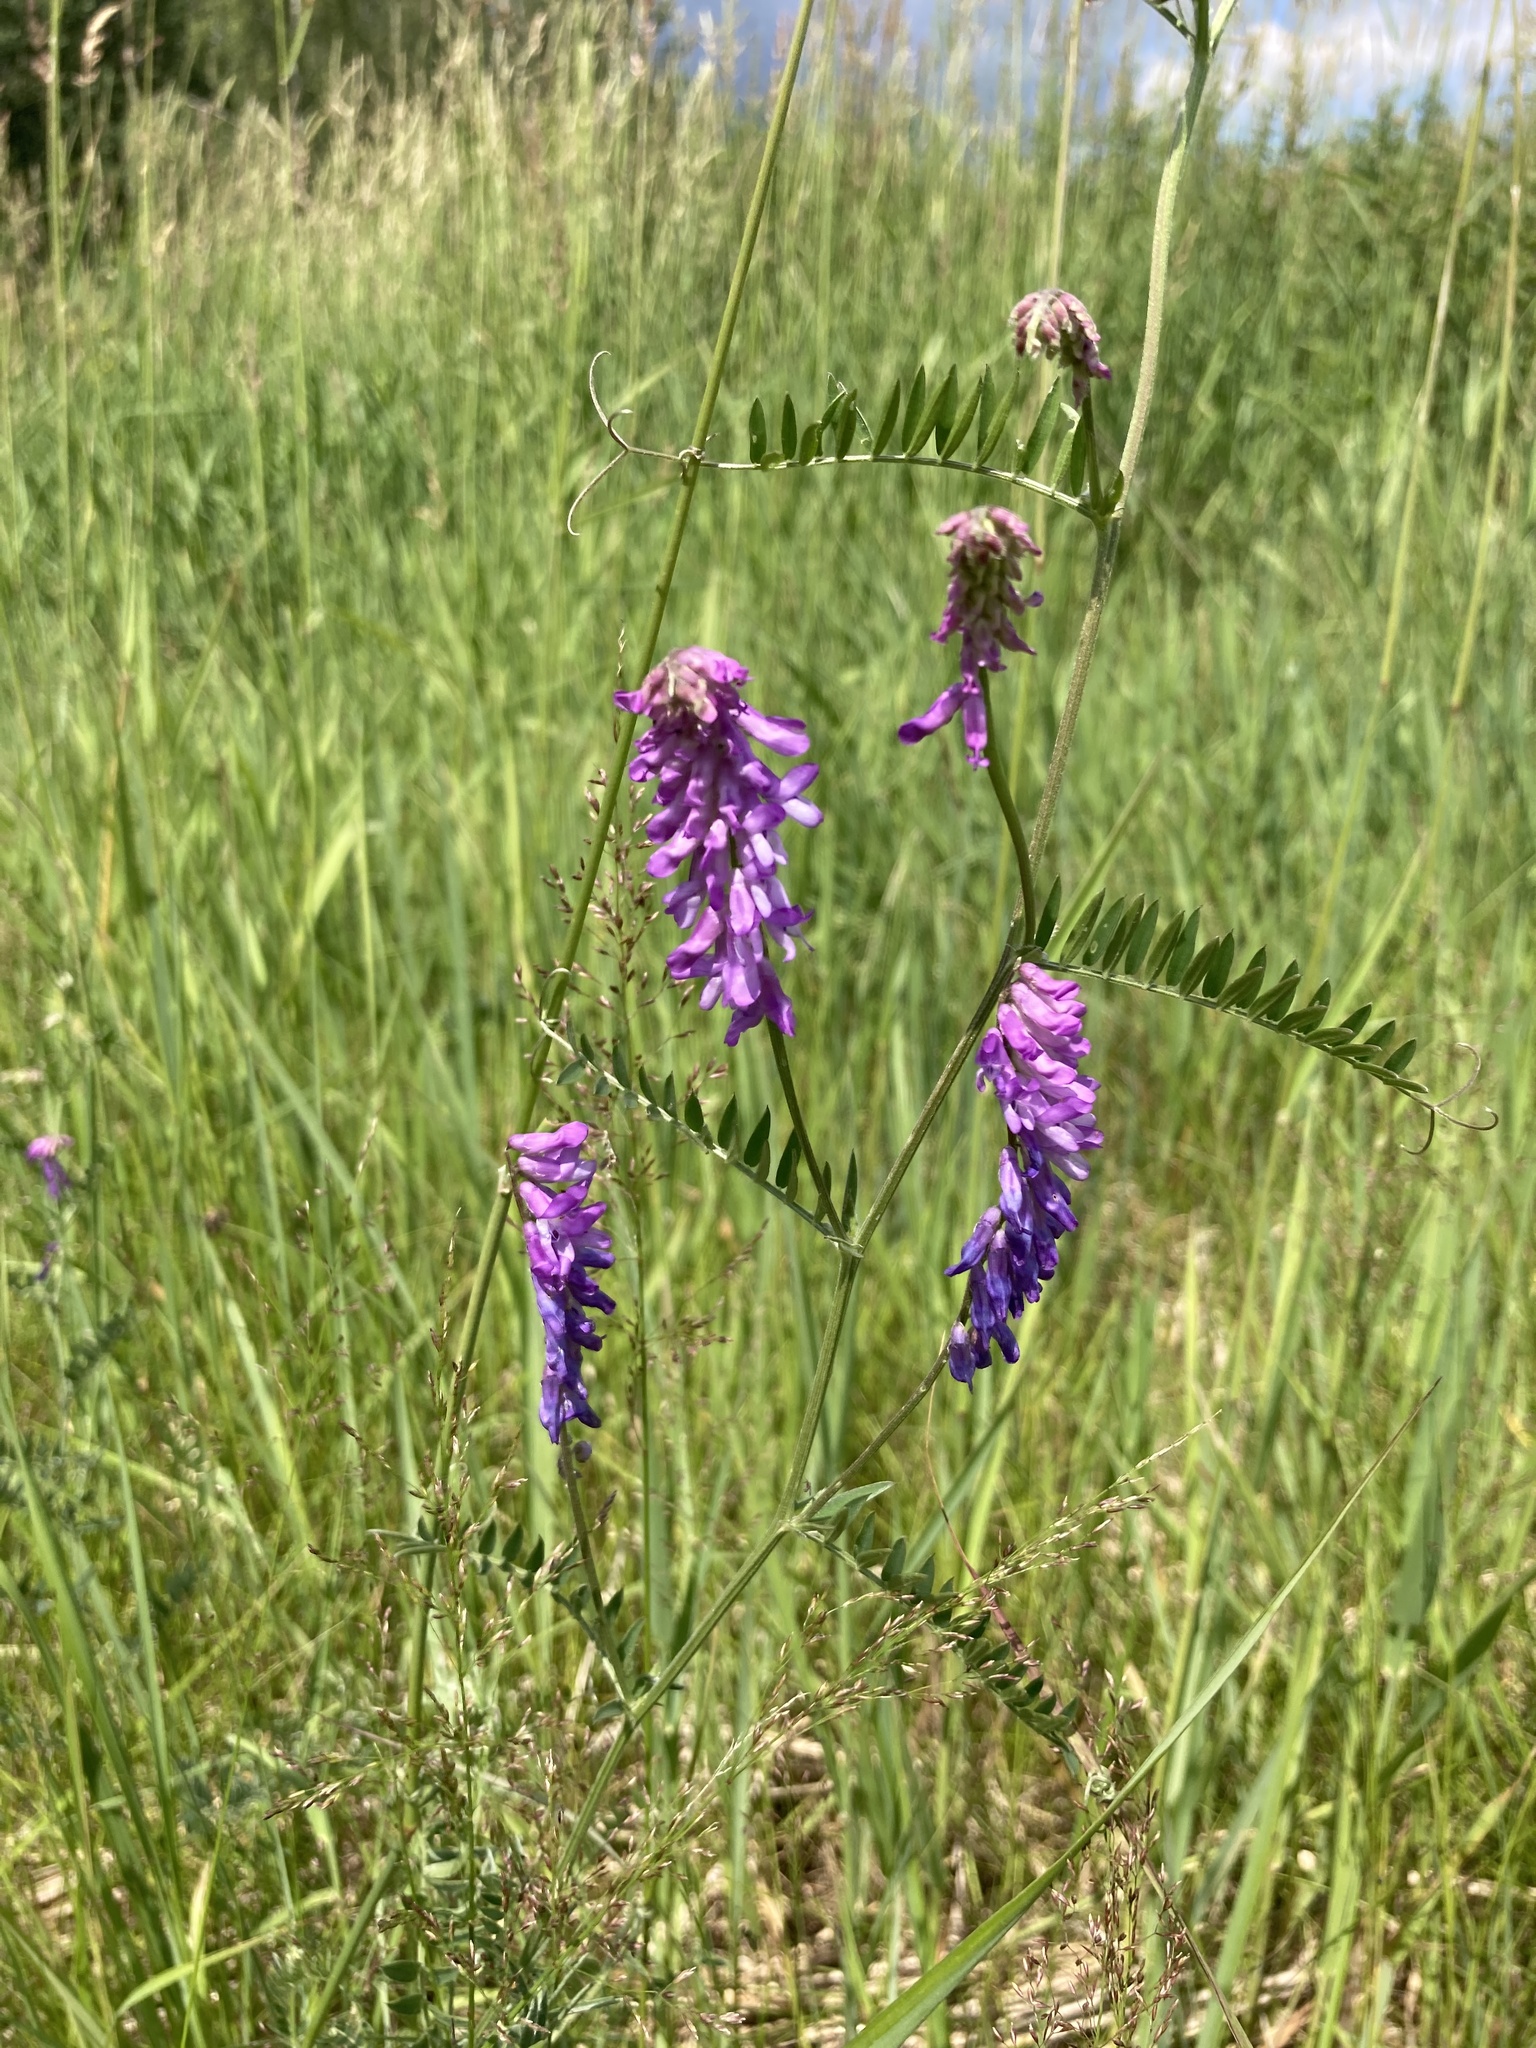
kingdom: Plantae
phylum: Tracheophyta
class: Magnoliopsida
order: Fabales
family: Fabaceae
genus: Vicia
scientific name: Vicia cracca
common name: Bird vetch
